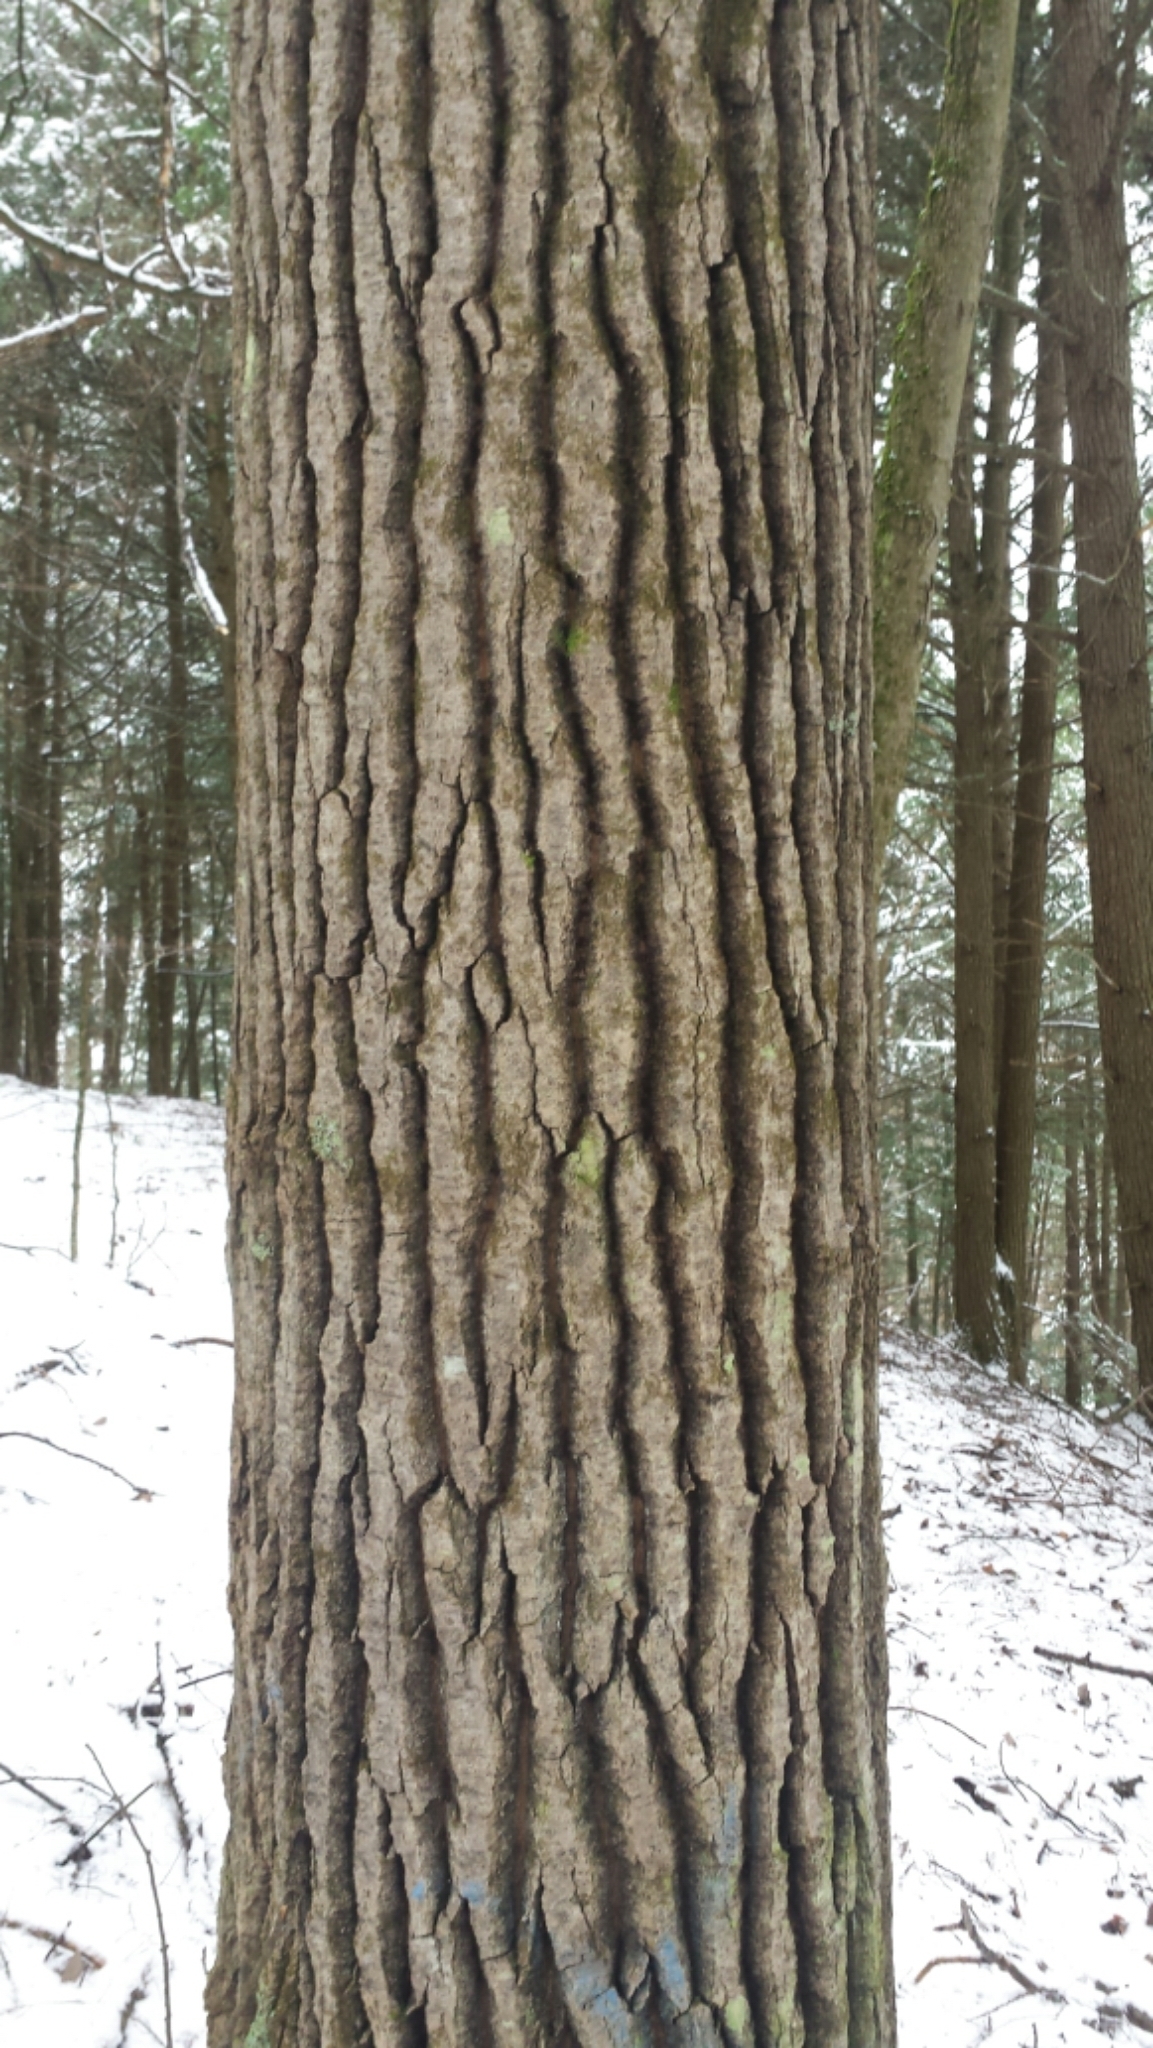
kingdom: Plantae
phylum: Tracheophyta
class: Magnoliopsida
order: Malpighiales
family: Salicaceae
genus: Populus
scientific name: Populus grandidentata
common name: Bigtooth aspen
